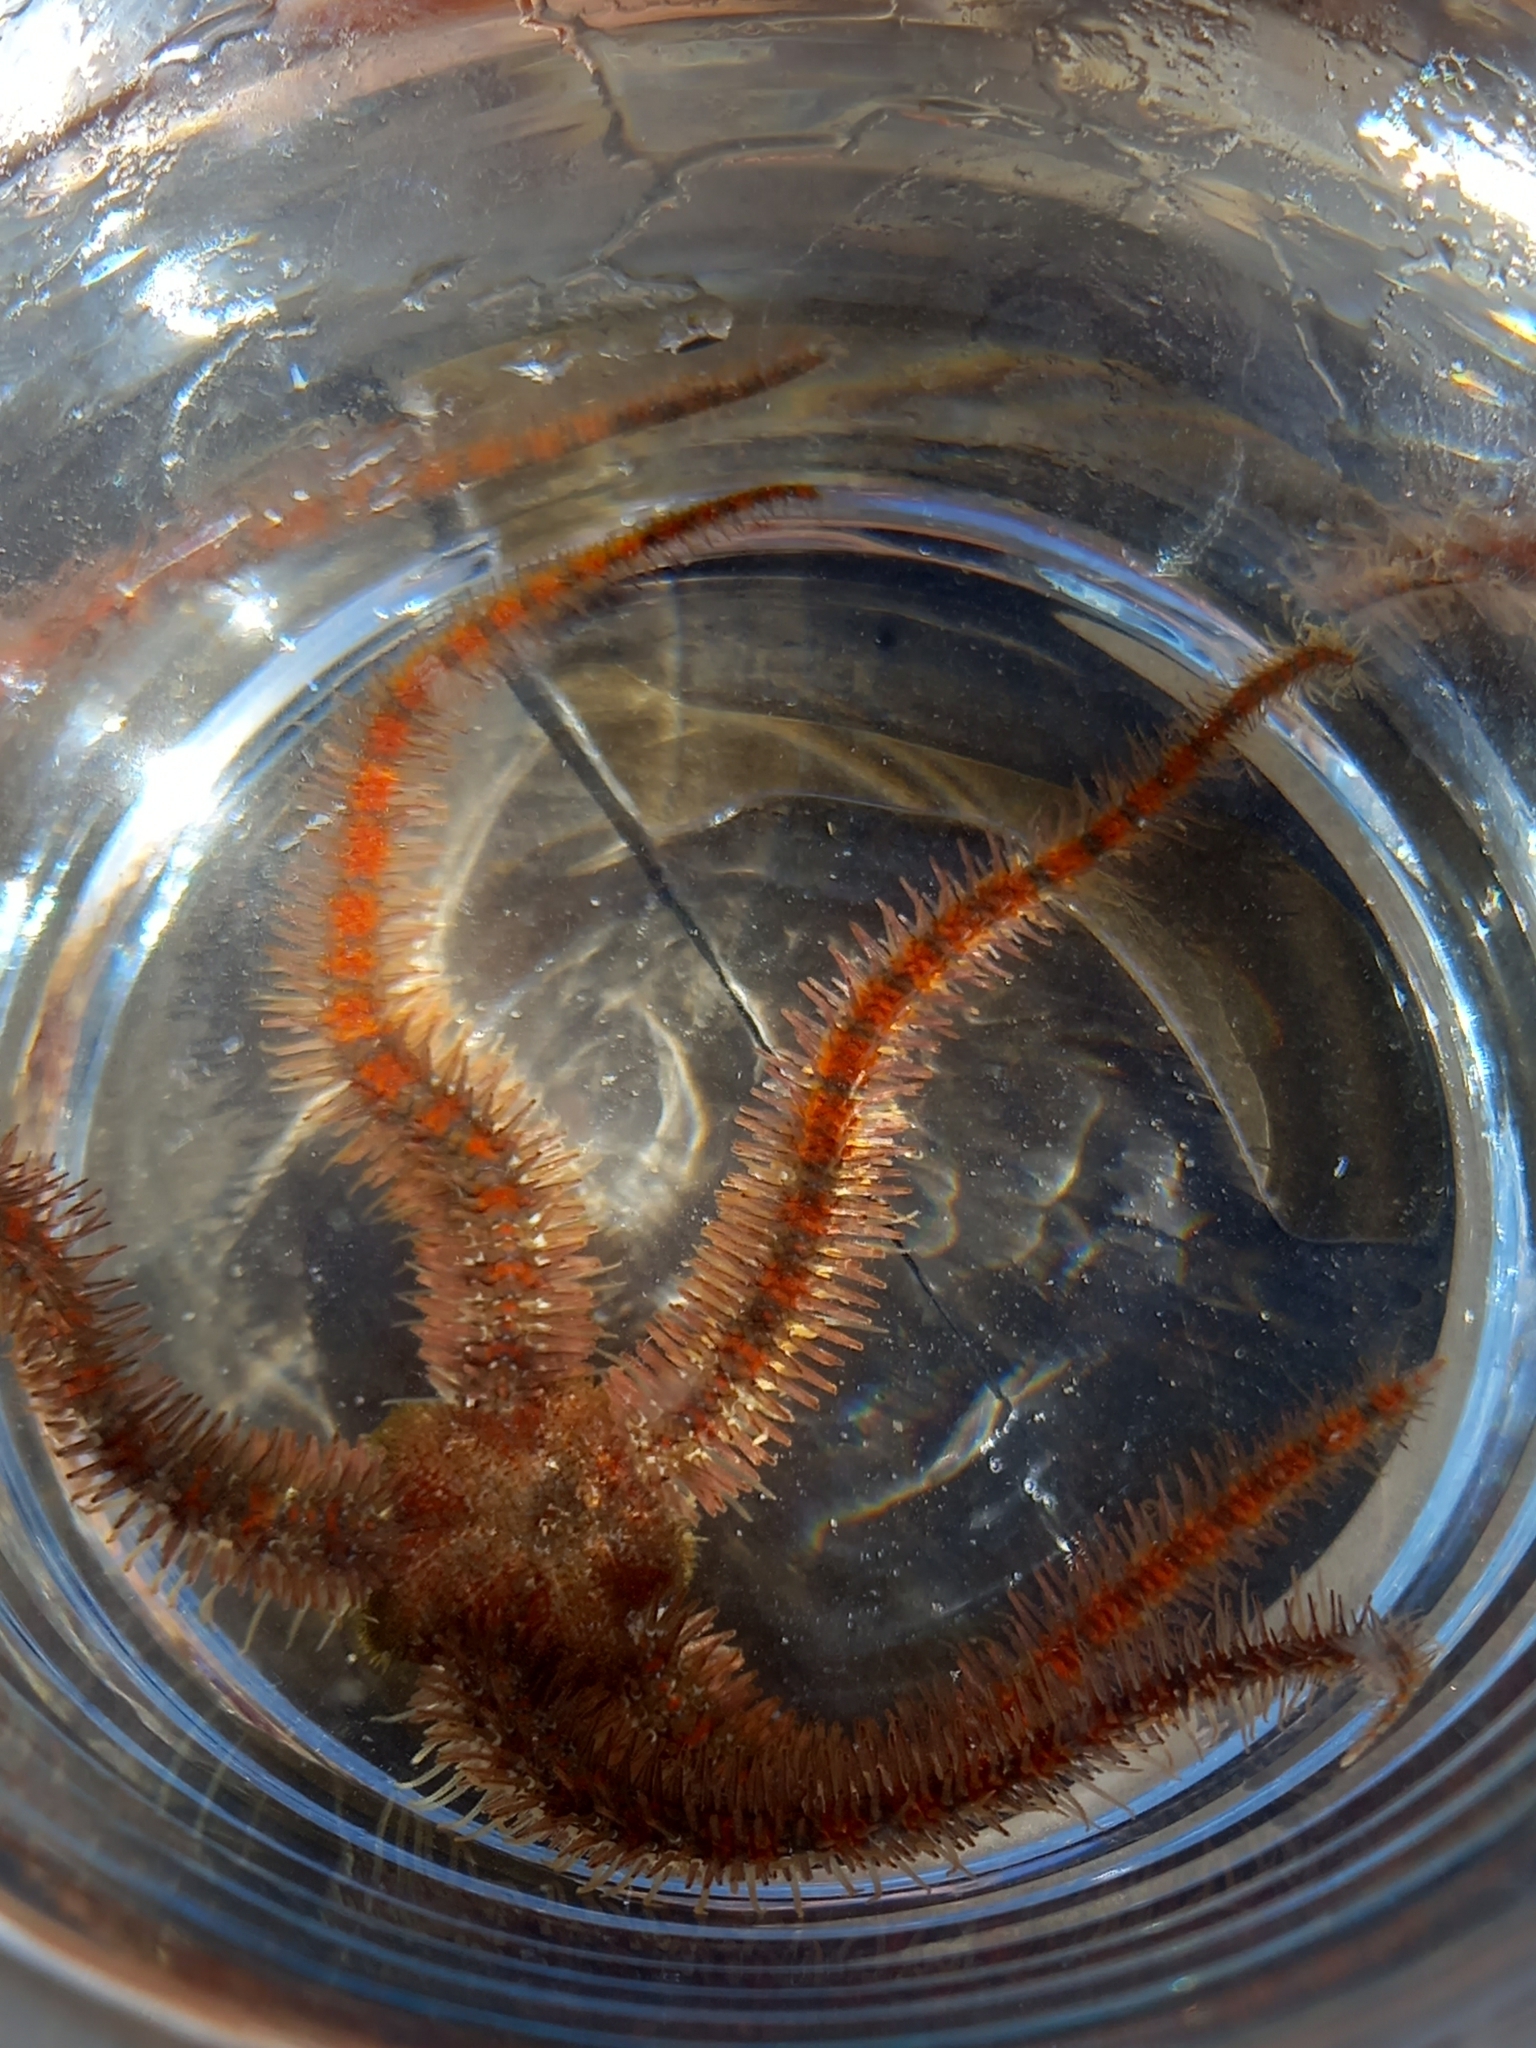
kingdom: Animalia
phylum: Echinodermata
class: Ophiuroidea
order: Amphilepidida
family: Ophiotrichidae
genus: Ophiothrix
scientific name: Ophiothrix fragilis
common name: Common brittlestar
